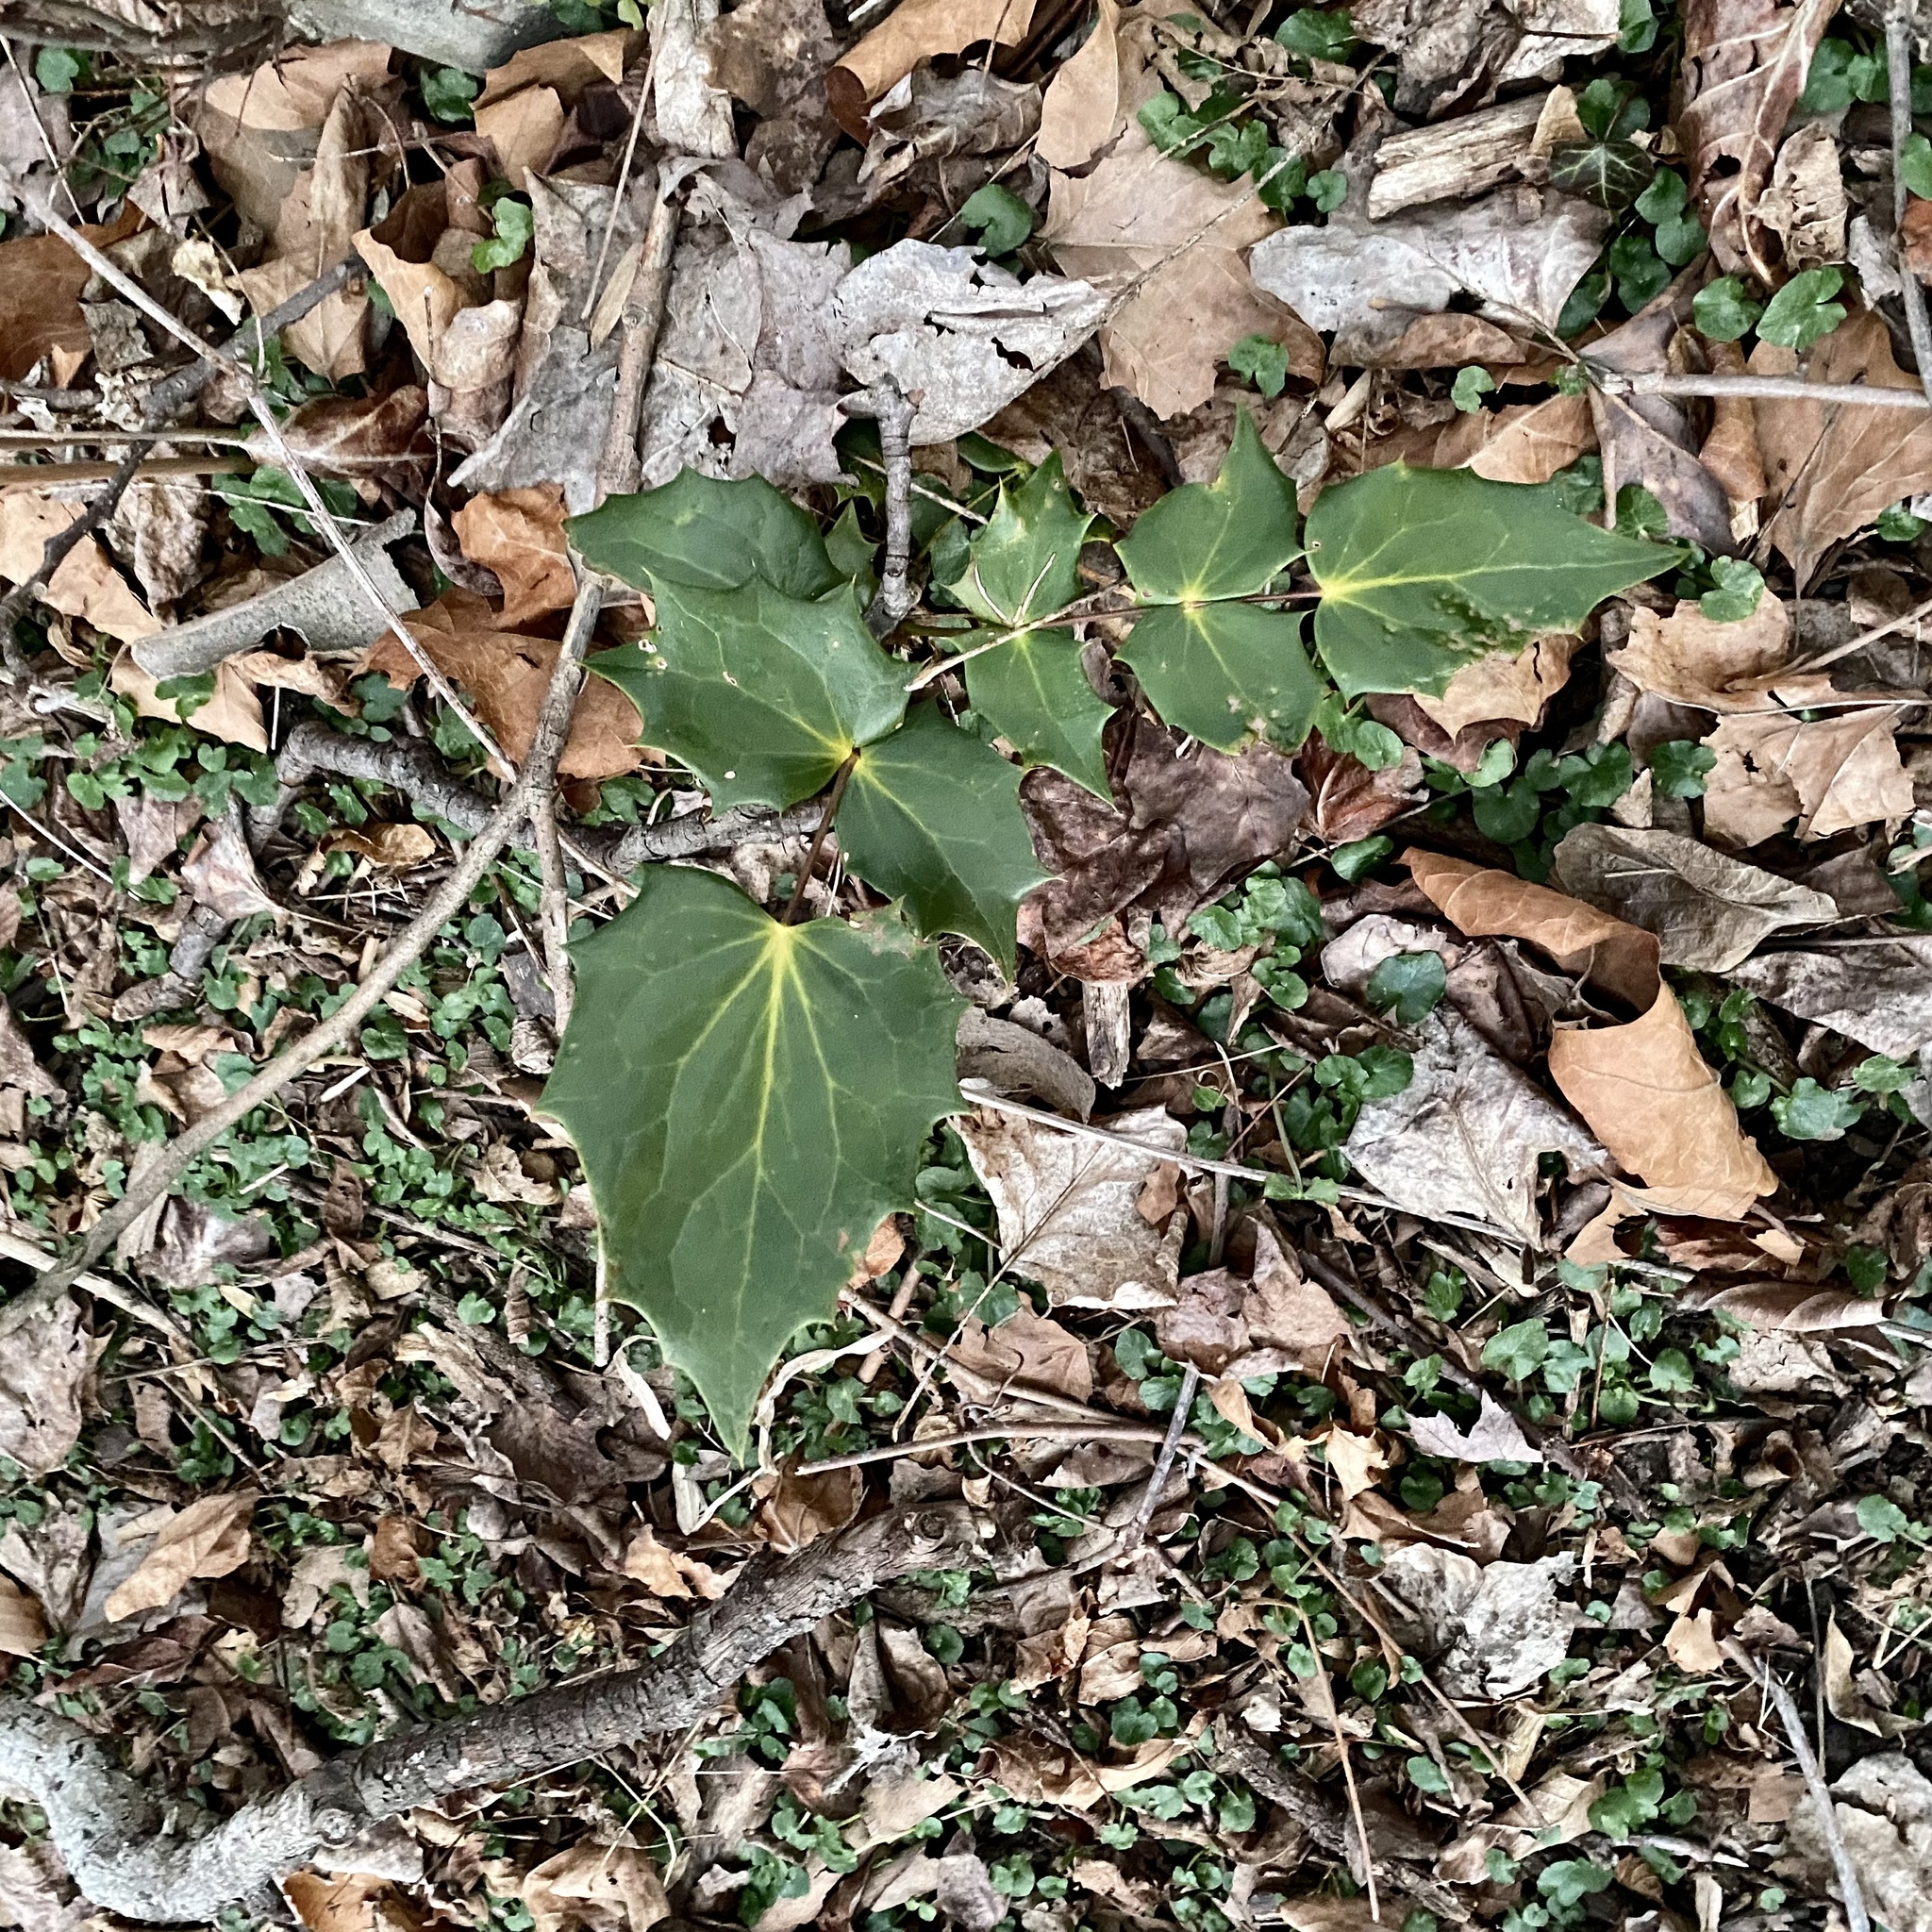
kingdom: Plantae
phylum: Tracheophyta
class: Magnoliopsida
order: Ranunculales
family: Berberidaceae
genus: Mahonia
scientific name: Mahonia bealei
